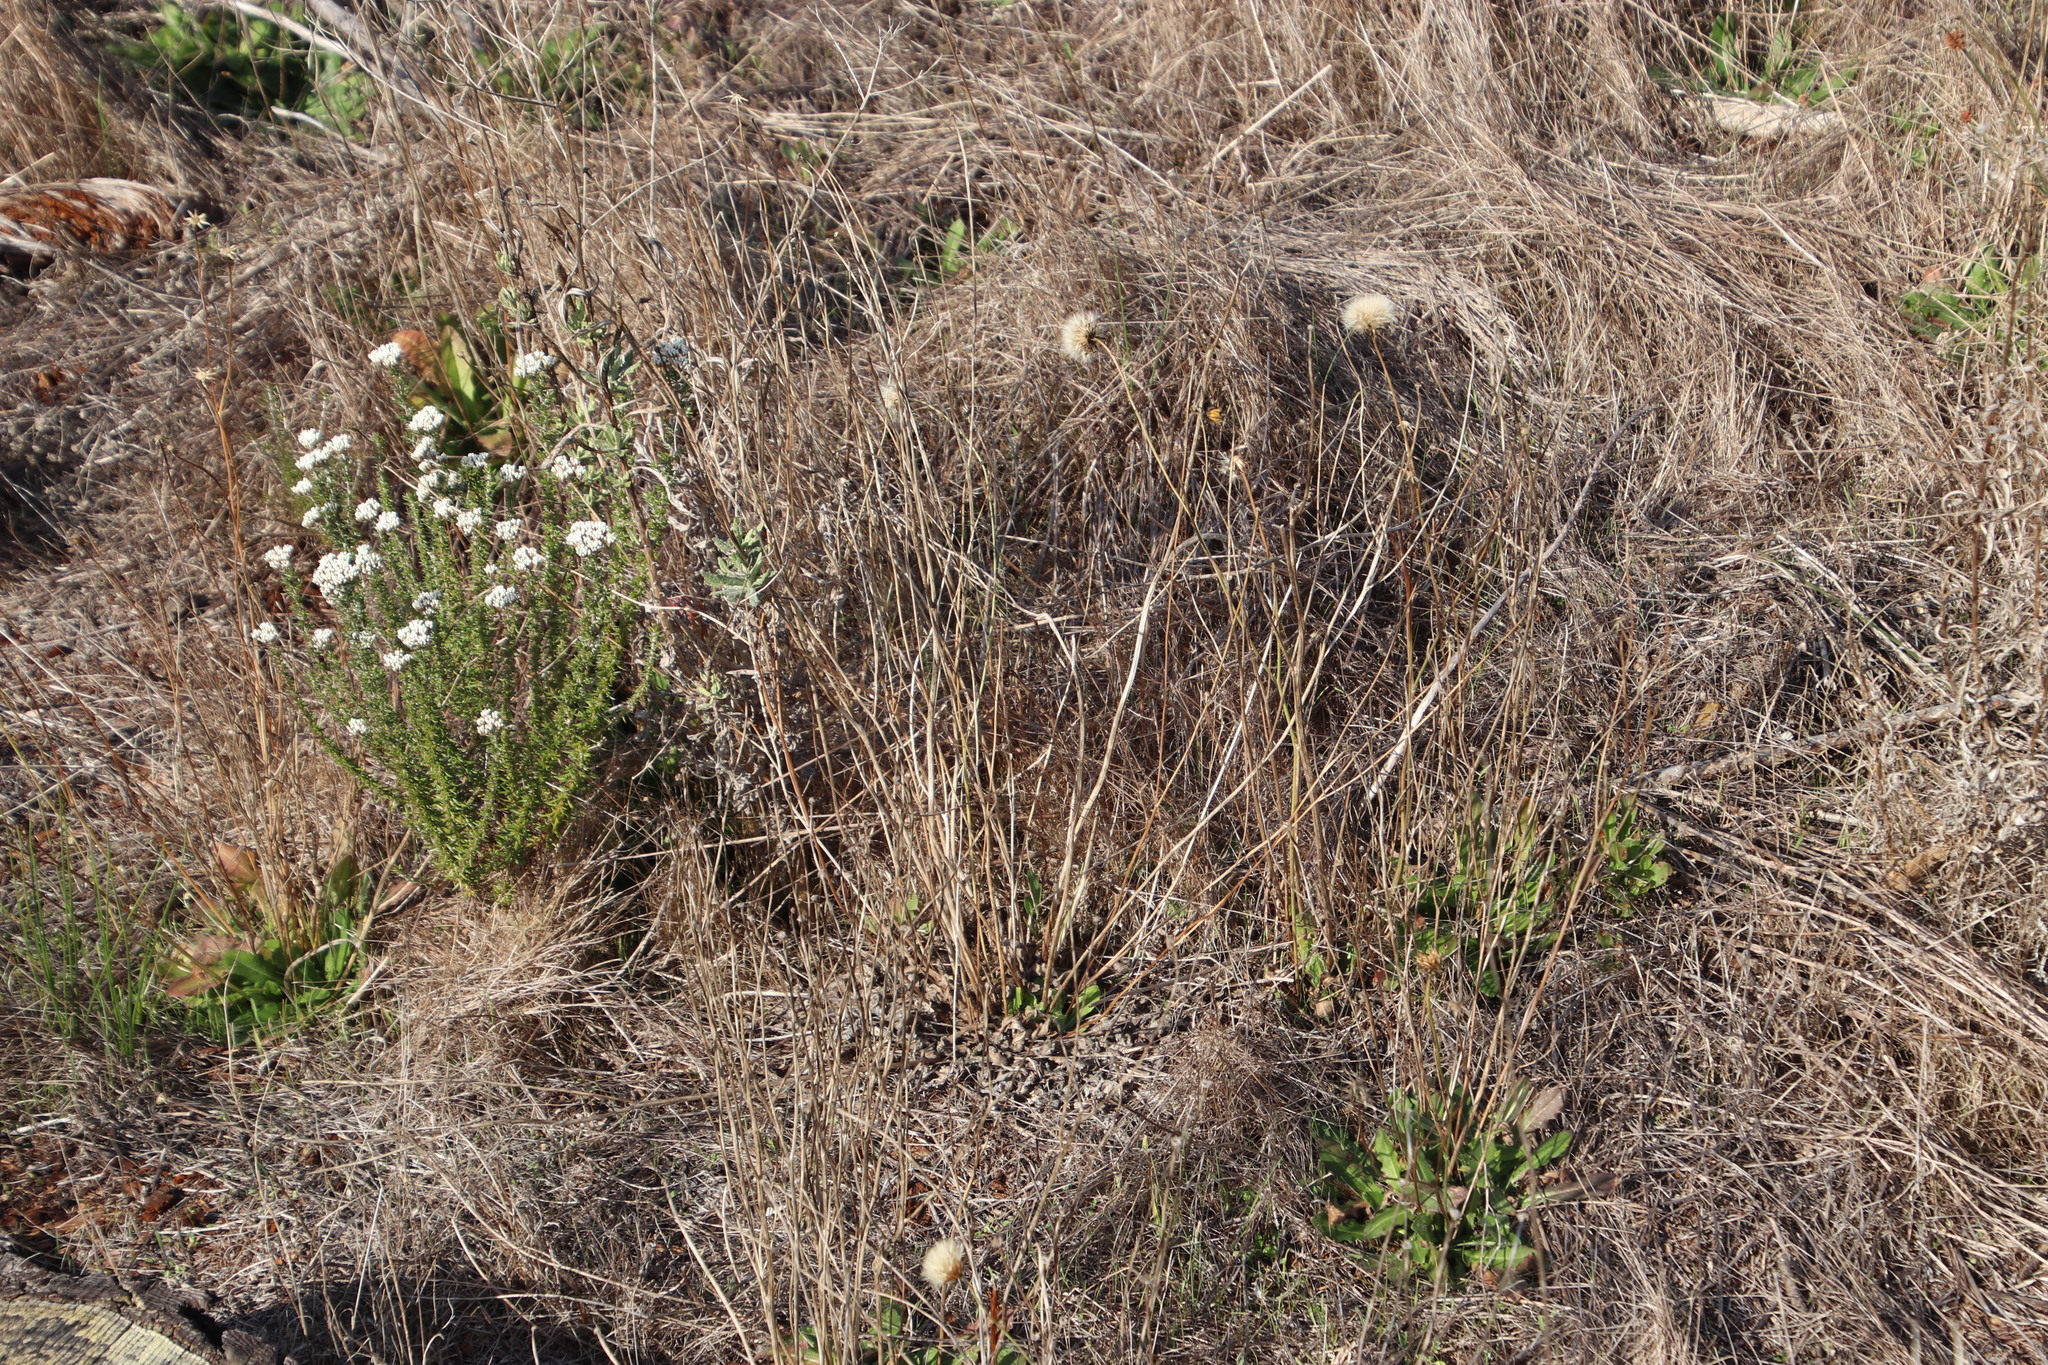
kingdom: Plantae
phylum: Tracheophyta
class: Magnoliopsida
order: Asterales
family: Asteraceae
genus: Hypochaeris
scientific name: Hypochaeris radicata
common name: Flatweed
